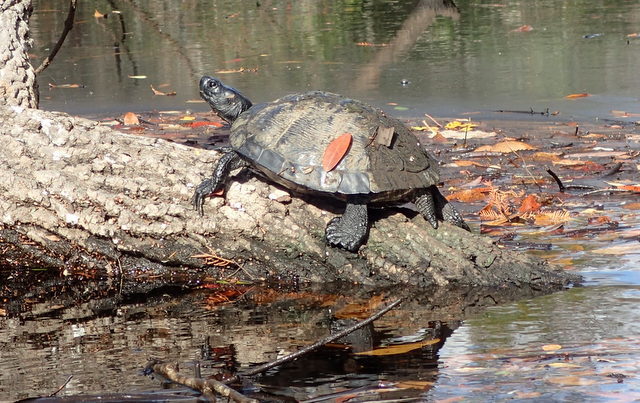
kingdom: Animalia
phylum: Chordata
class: Testudines
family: Emydidae
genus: Trachemys
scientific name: Trachemys scripta
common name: Slider
